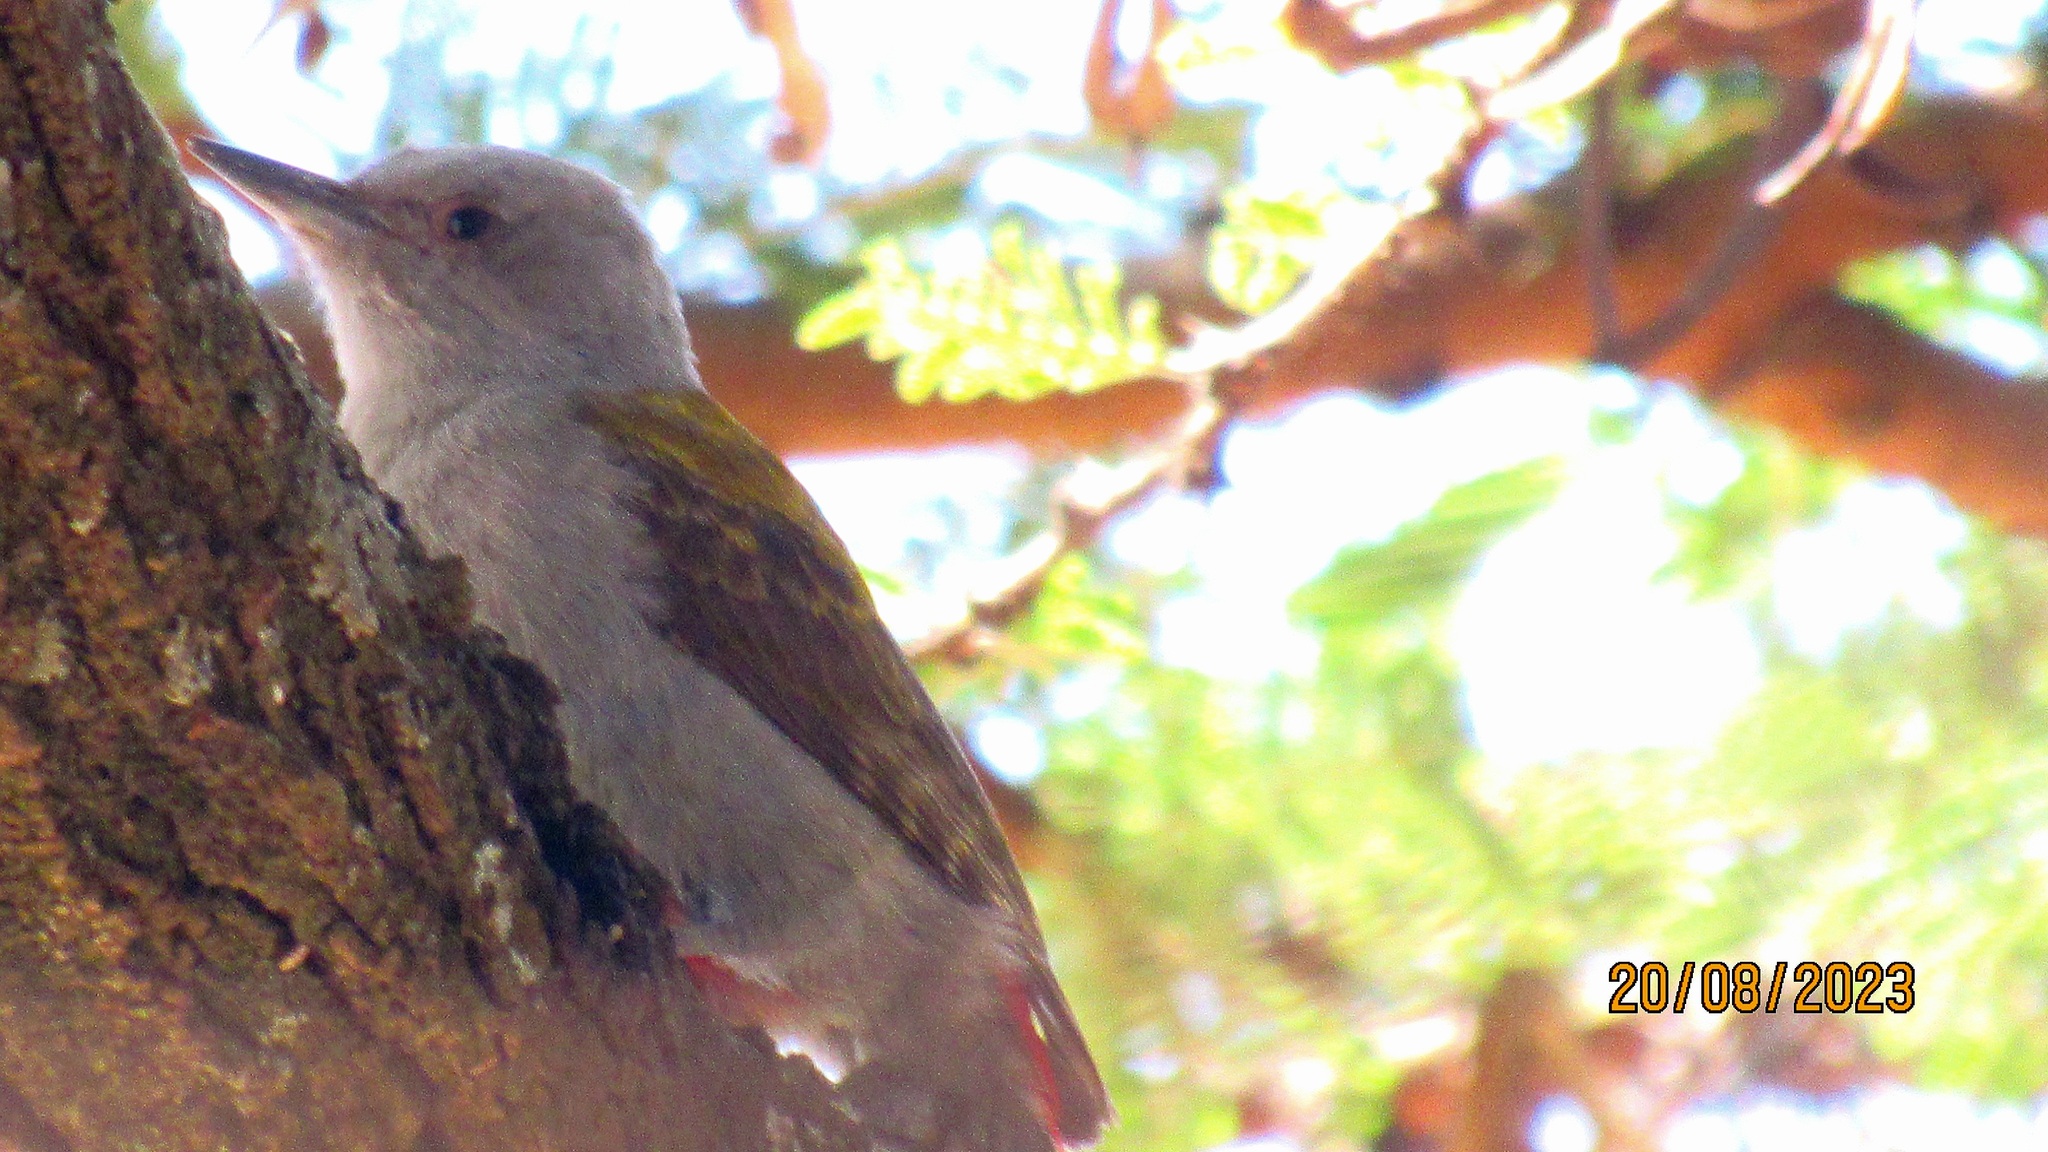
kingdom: Animalia
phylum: Chordata
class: Aves
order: Piciformes
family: Picidae
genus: Dendropicos
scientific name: Dendropicos spodocephalus
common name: Eastern grey woodpecker
